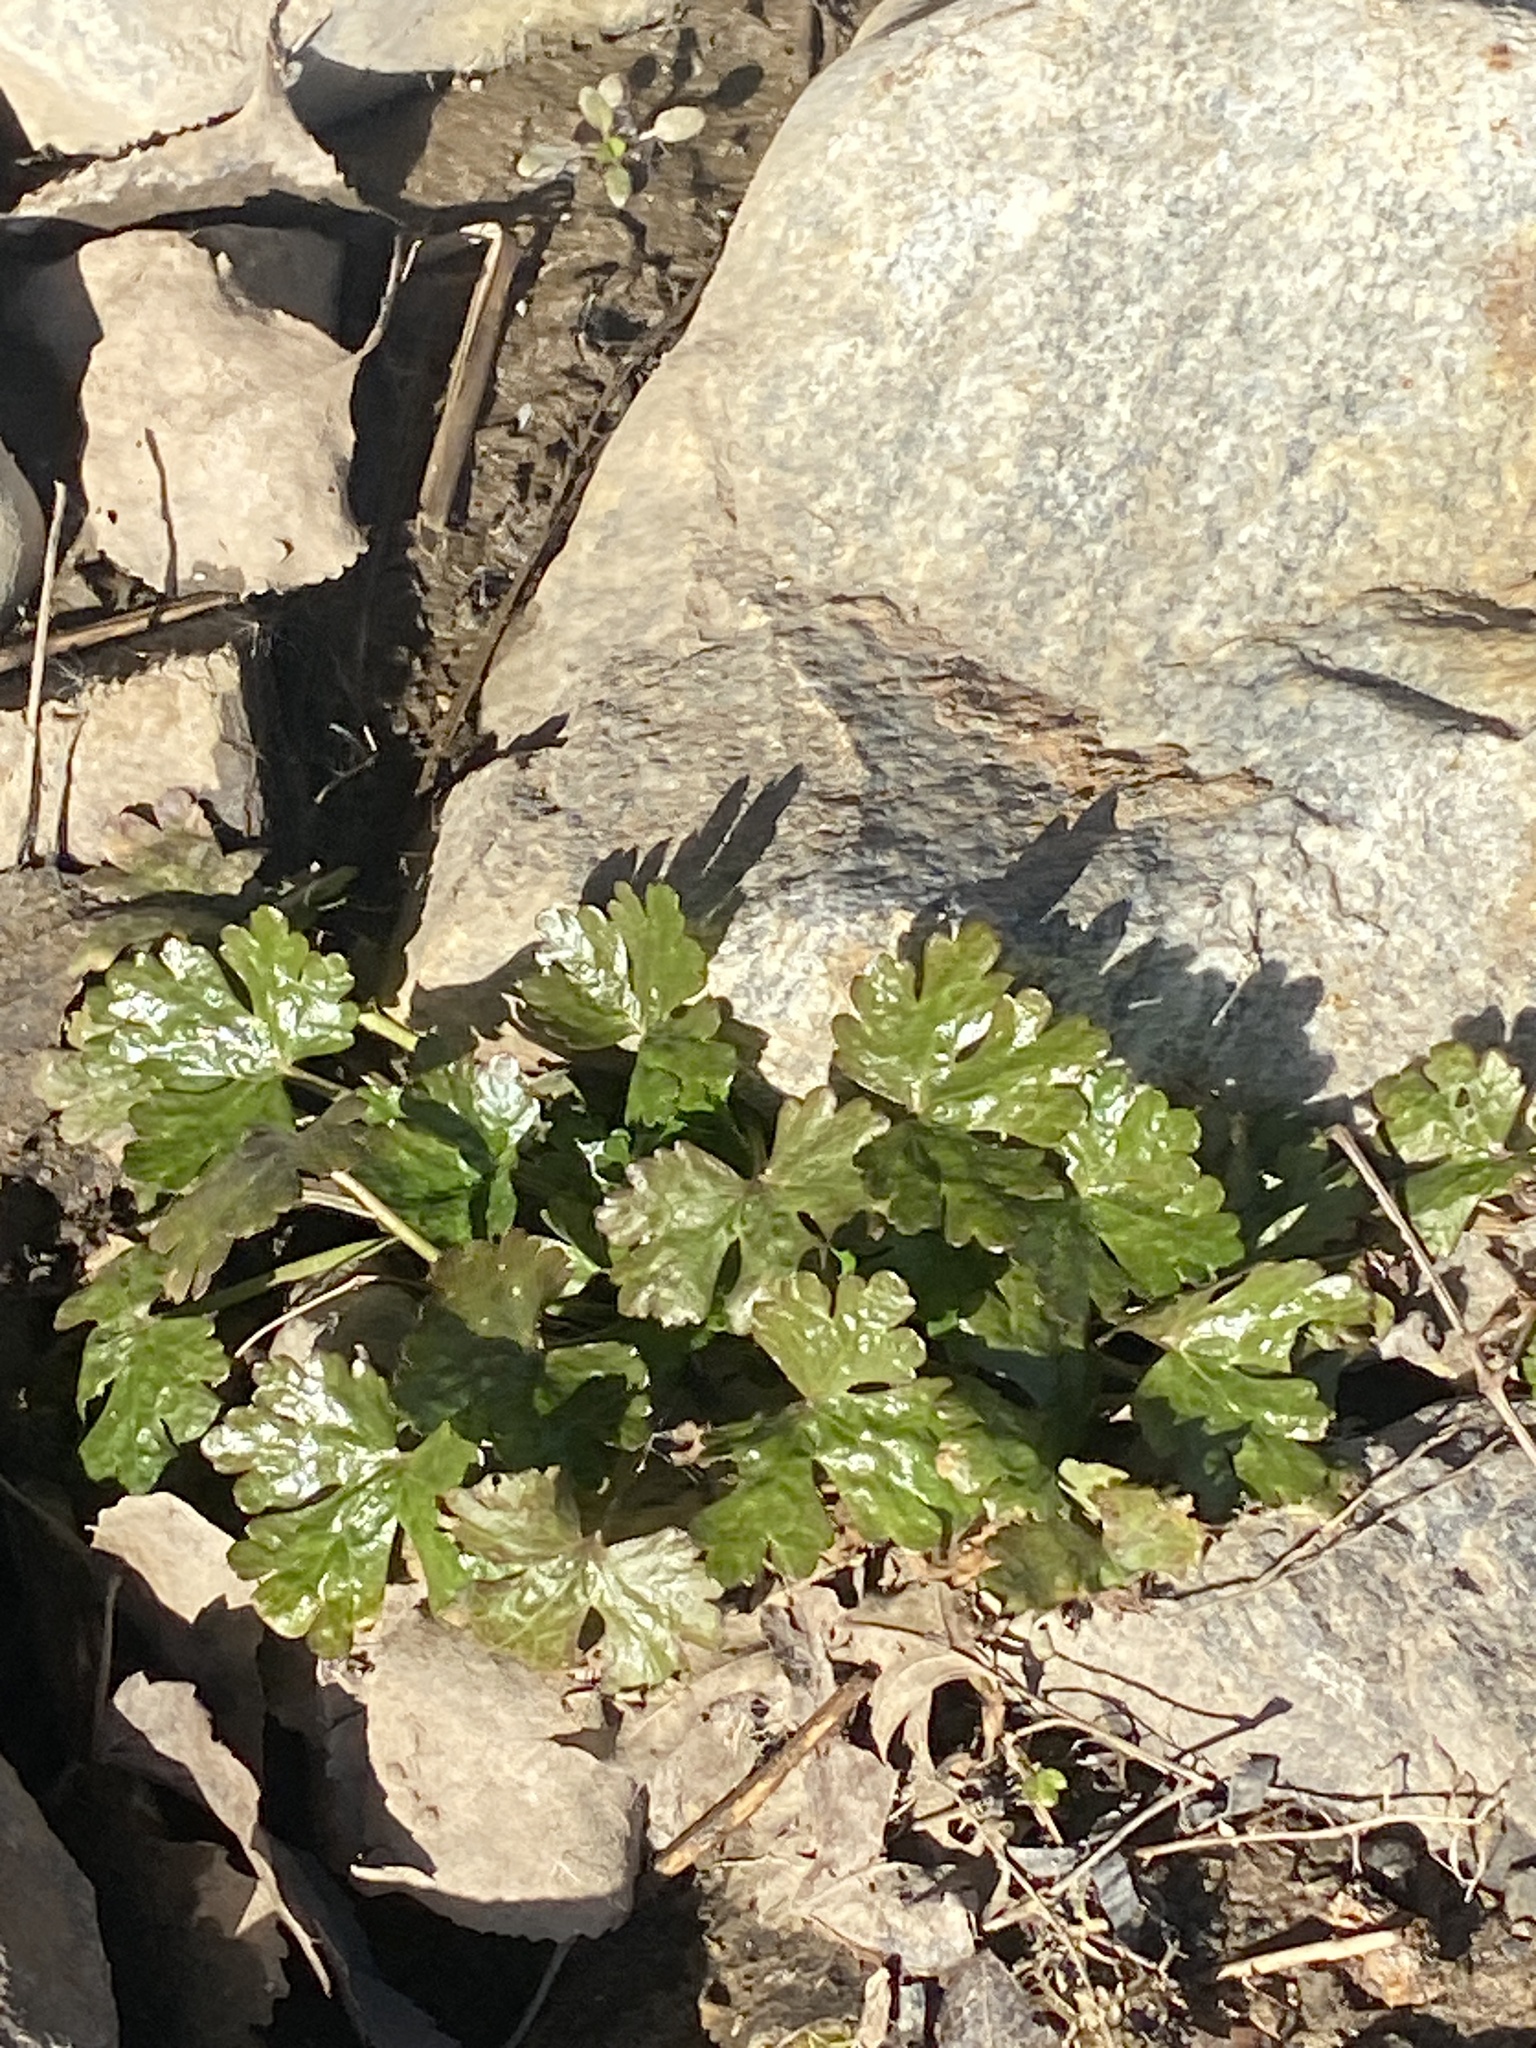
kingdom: Plantae
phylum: Tracheophyta
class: Magnoliopsida
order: Ranunculales
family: Ranunculaceae
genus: Ranunculus
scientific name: Ranunculus sceleratus
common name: Celery-leaved buttercup
